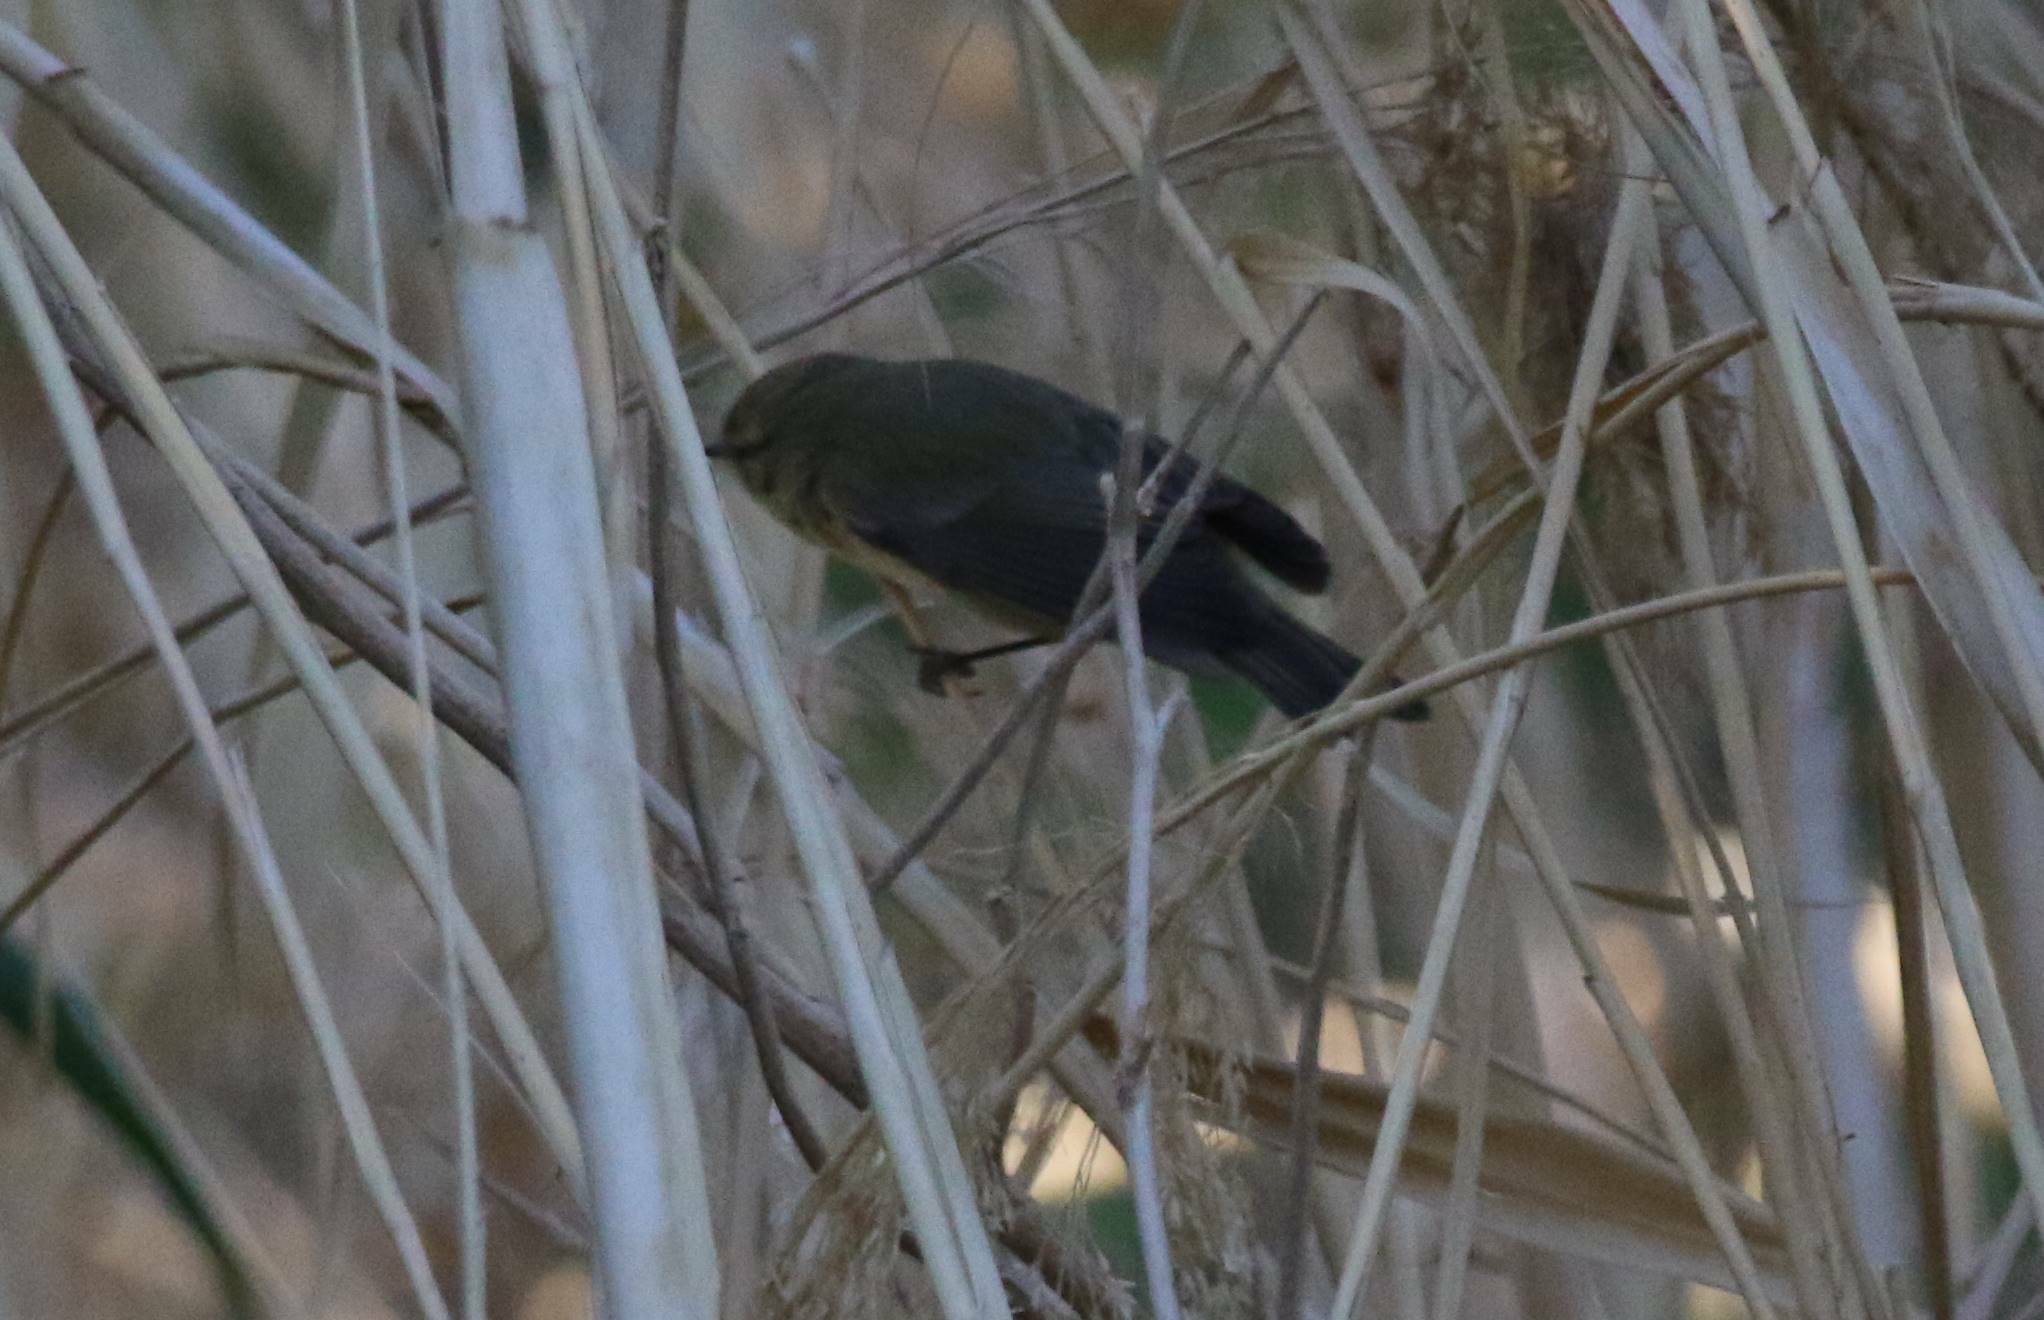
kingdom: Animalia
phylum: Chordata
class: Aves
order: Passeriformes
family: Phylloscopidae
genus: Phylloscopus
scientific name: Phylloscopus collybita
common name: Common chiffchaff
